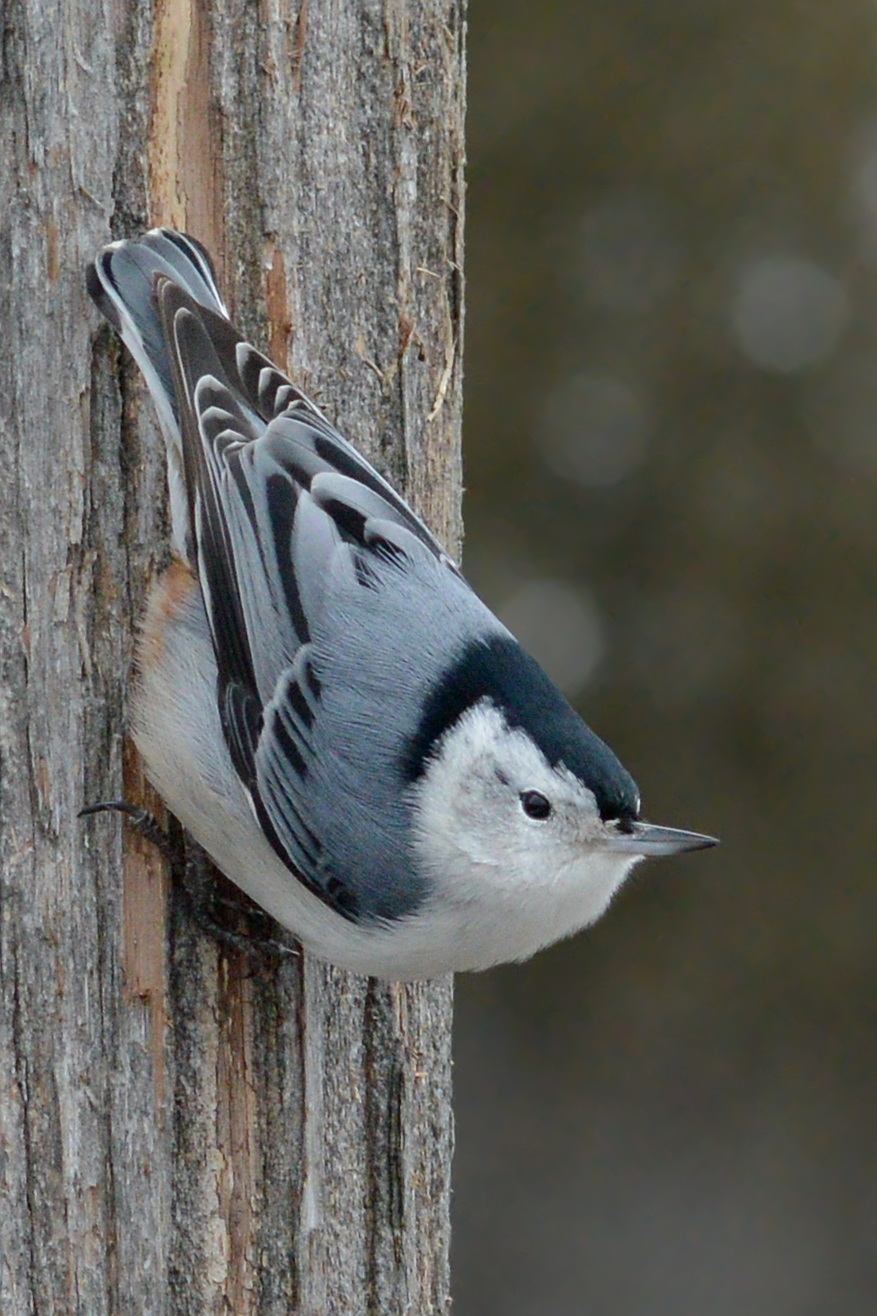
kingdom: Animalia
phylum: Chordata
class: Aves
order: Passeriformes
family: Sittidae
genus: Sitta
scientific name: Sitta carolinensis
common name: White-breasted nuthatch
